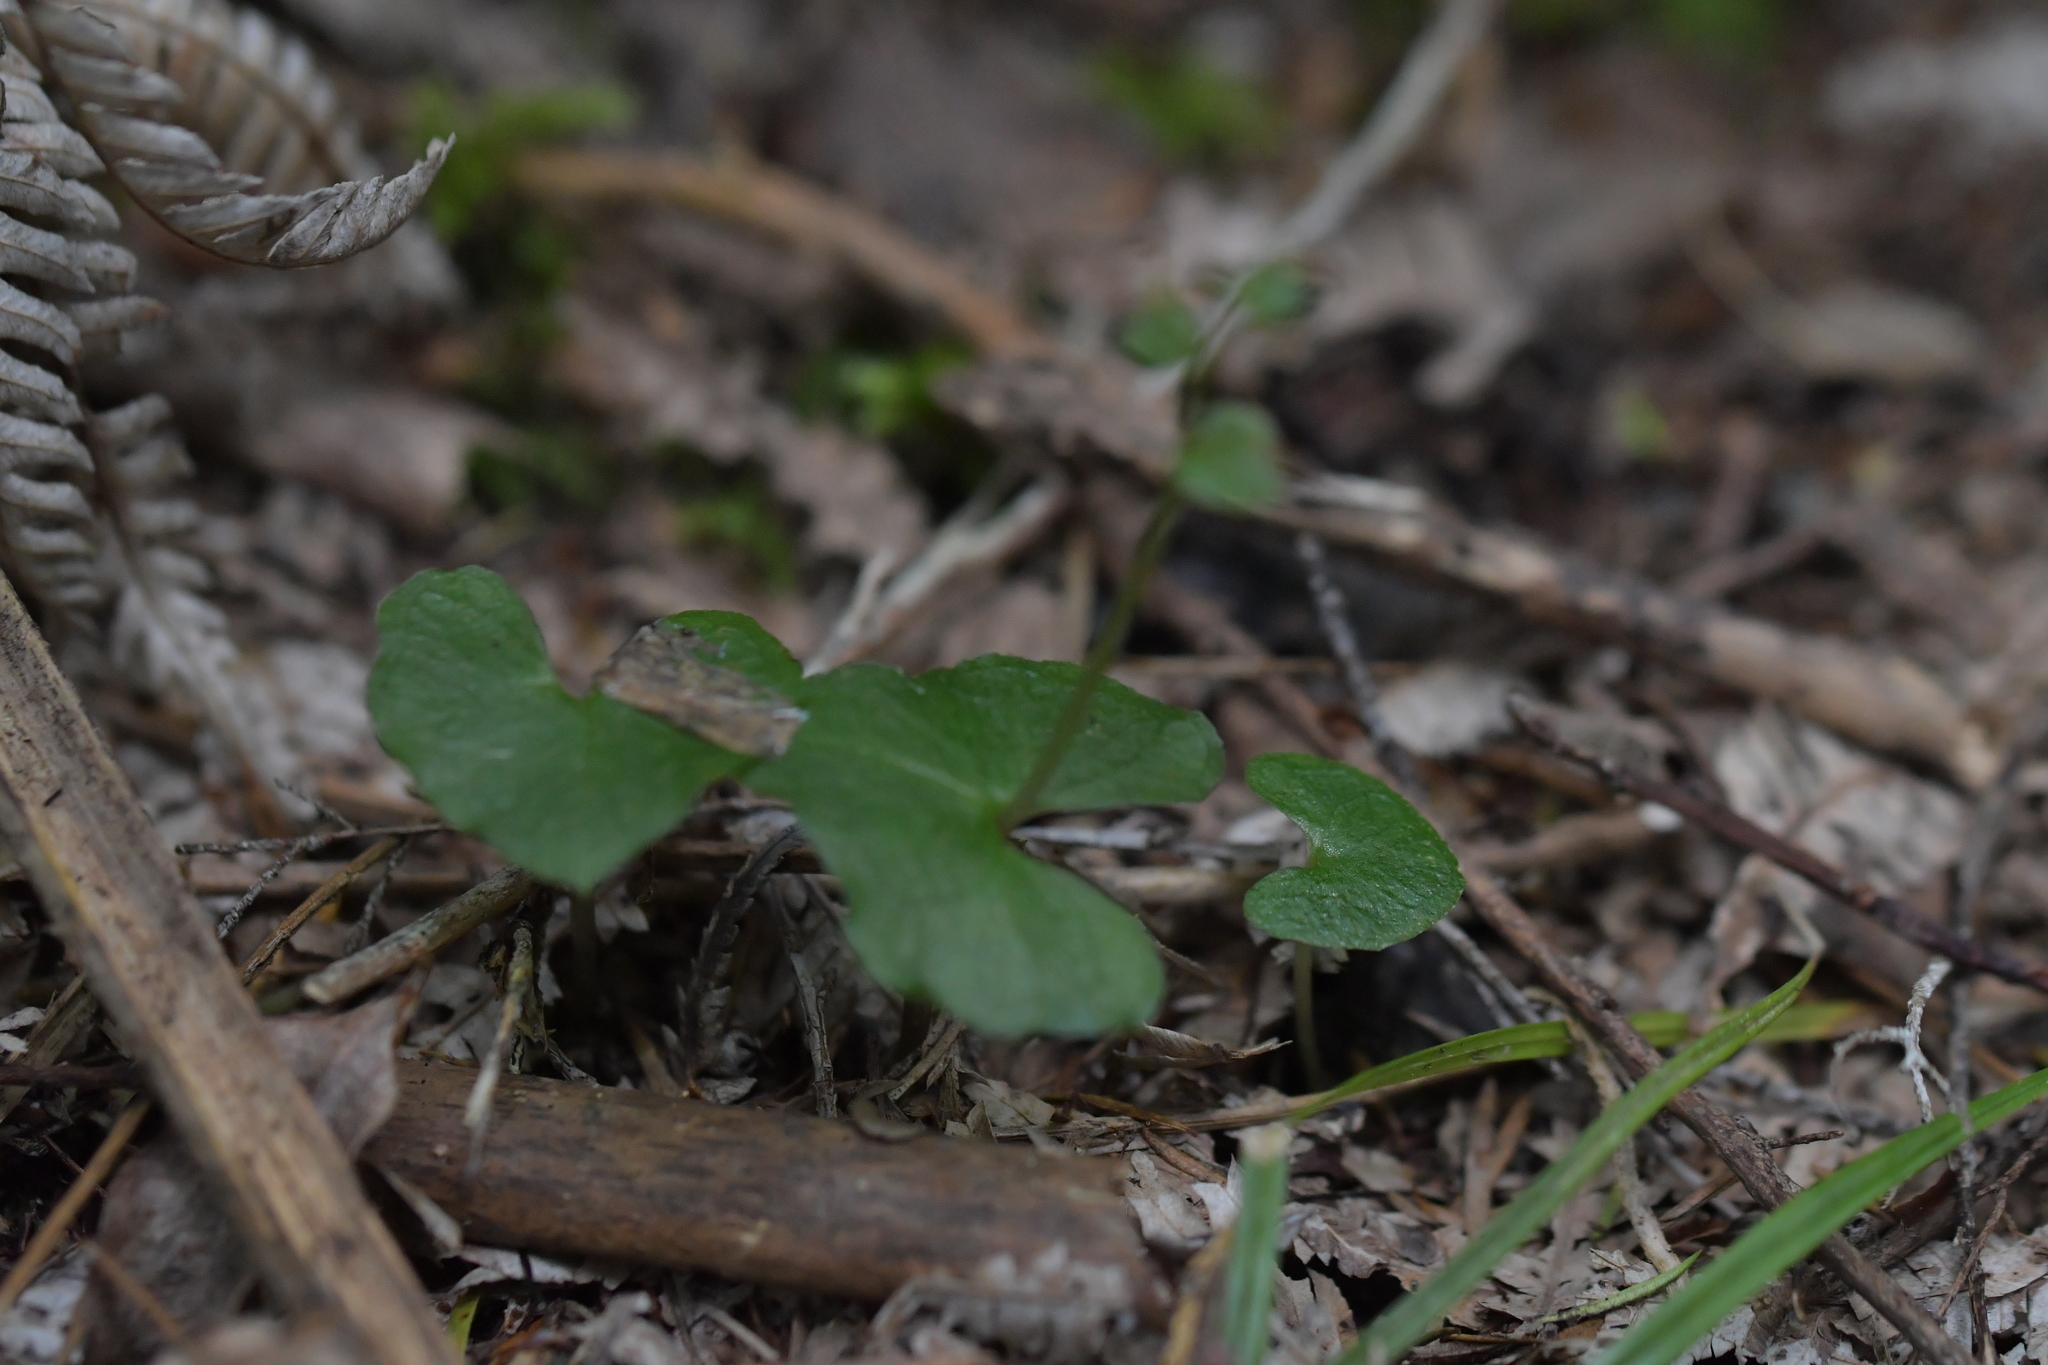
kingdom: Plantae
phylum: Tracheophyta
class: Liliopsida
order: Asparagales
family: Orchidaceae
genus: Acianthus
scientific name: Acianthus sinclairii
